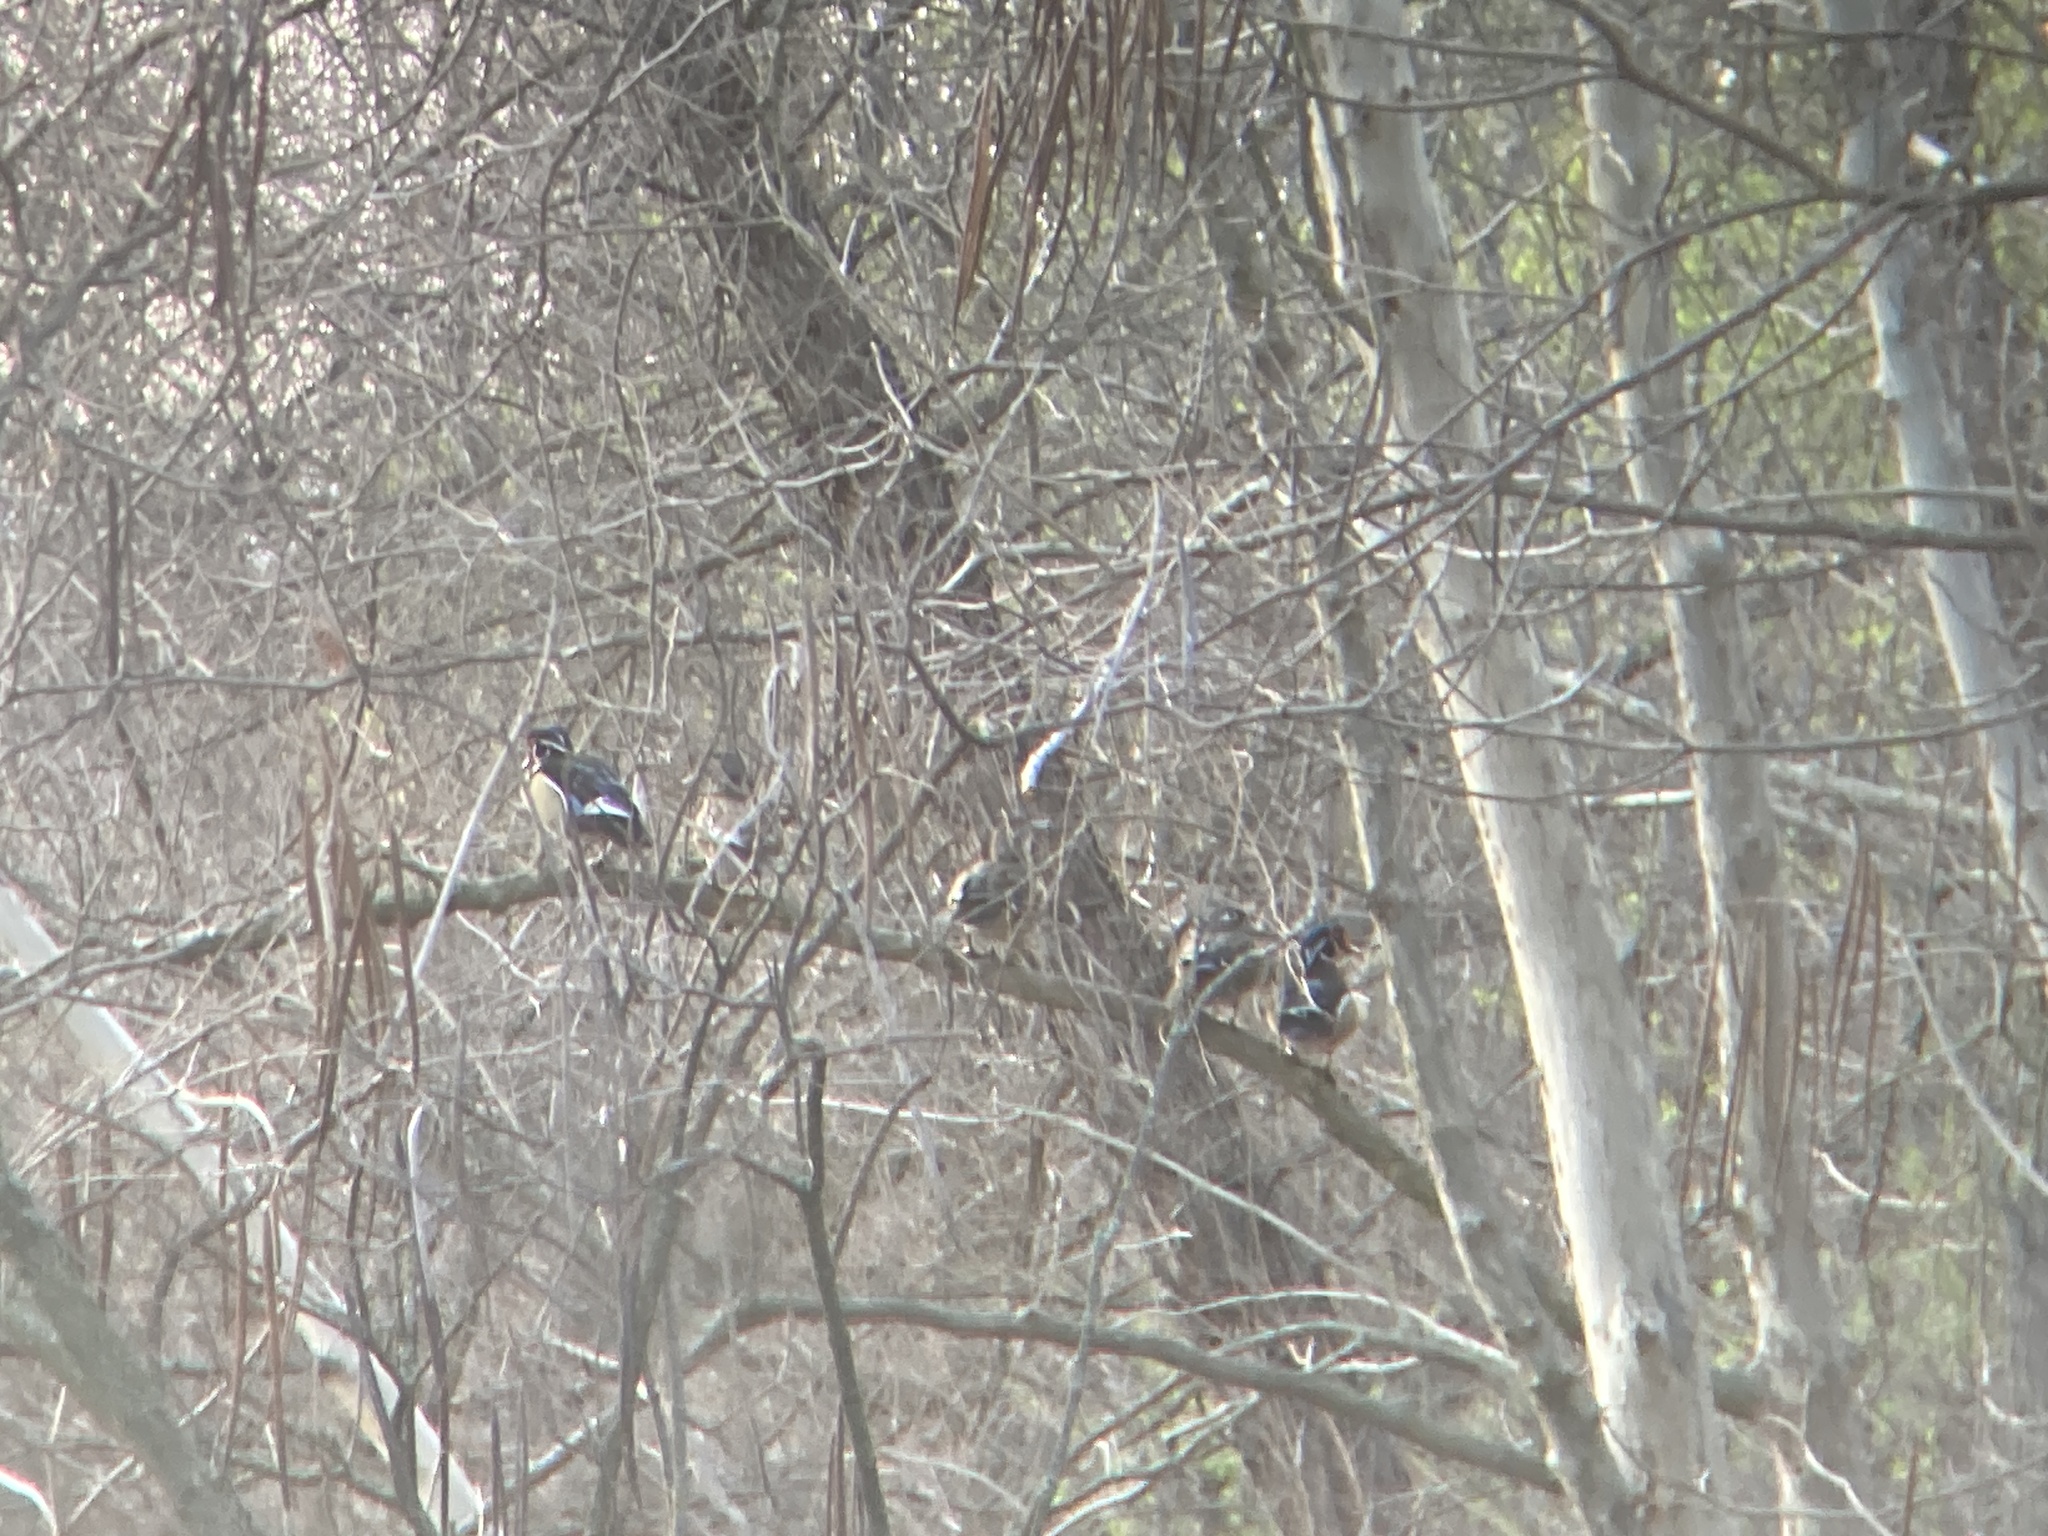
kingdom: Animalia
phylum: Chordata
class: Aves
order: Anseriformes
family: Anatidae
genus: Aix
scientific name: Aix sponsa
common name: Wood duck
